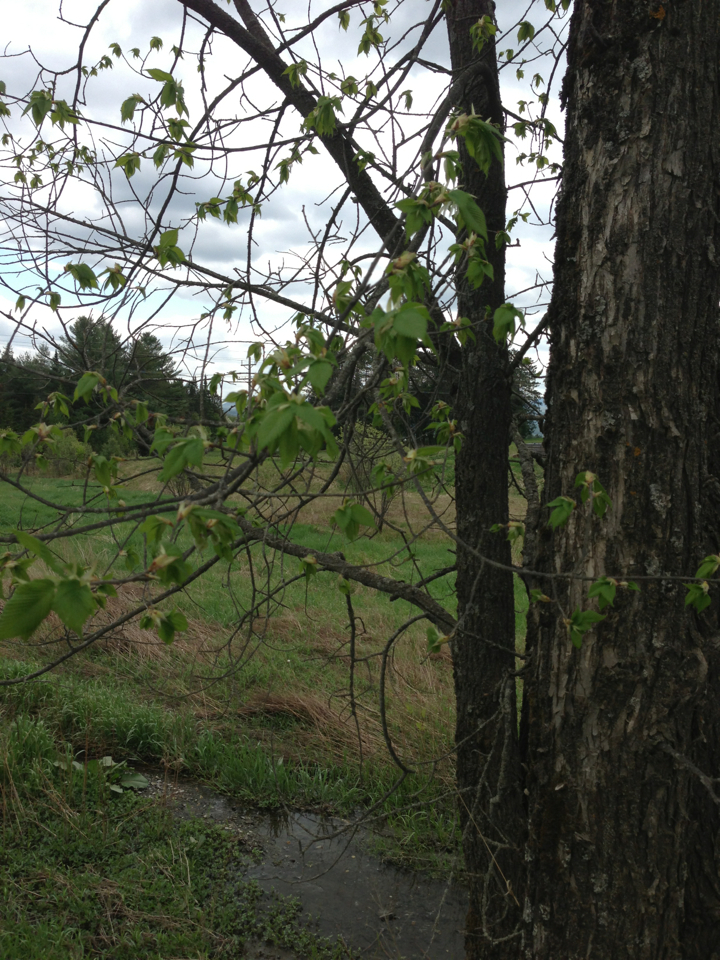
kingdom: Plantae
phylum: Tracheophyta
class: Magnoliopsida
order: Rosales
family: Ulmaceae
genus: Ulmus
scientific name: Ulmus americana
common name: American elm
